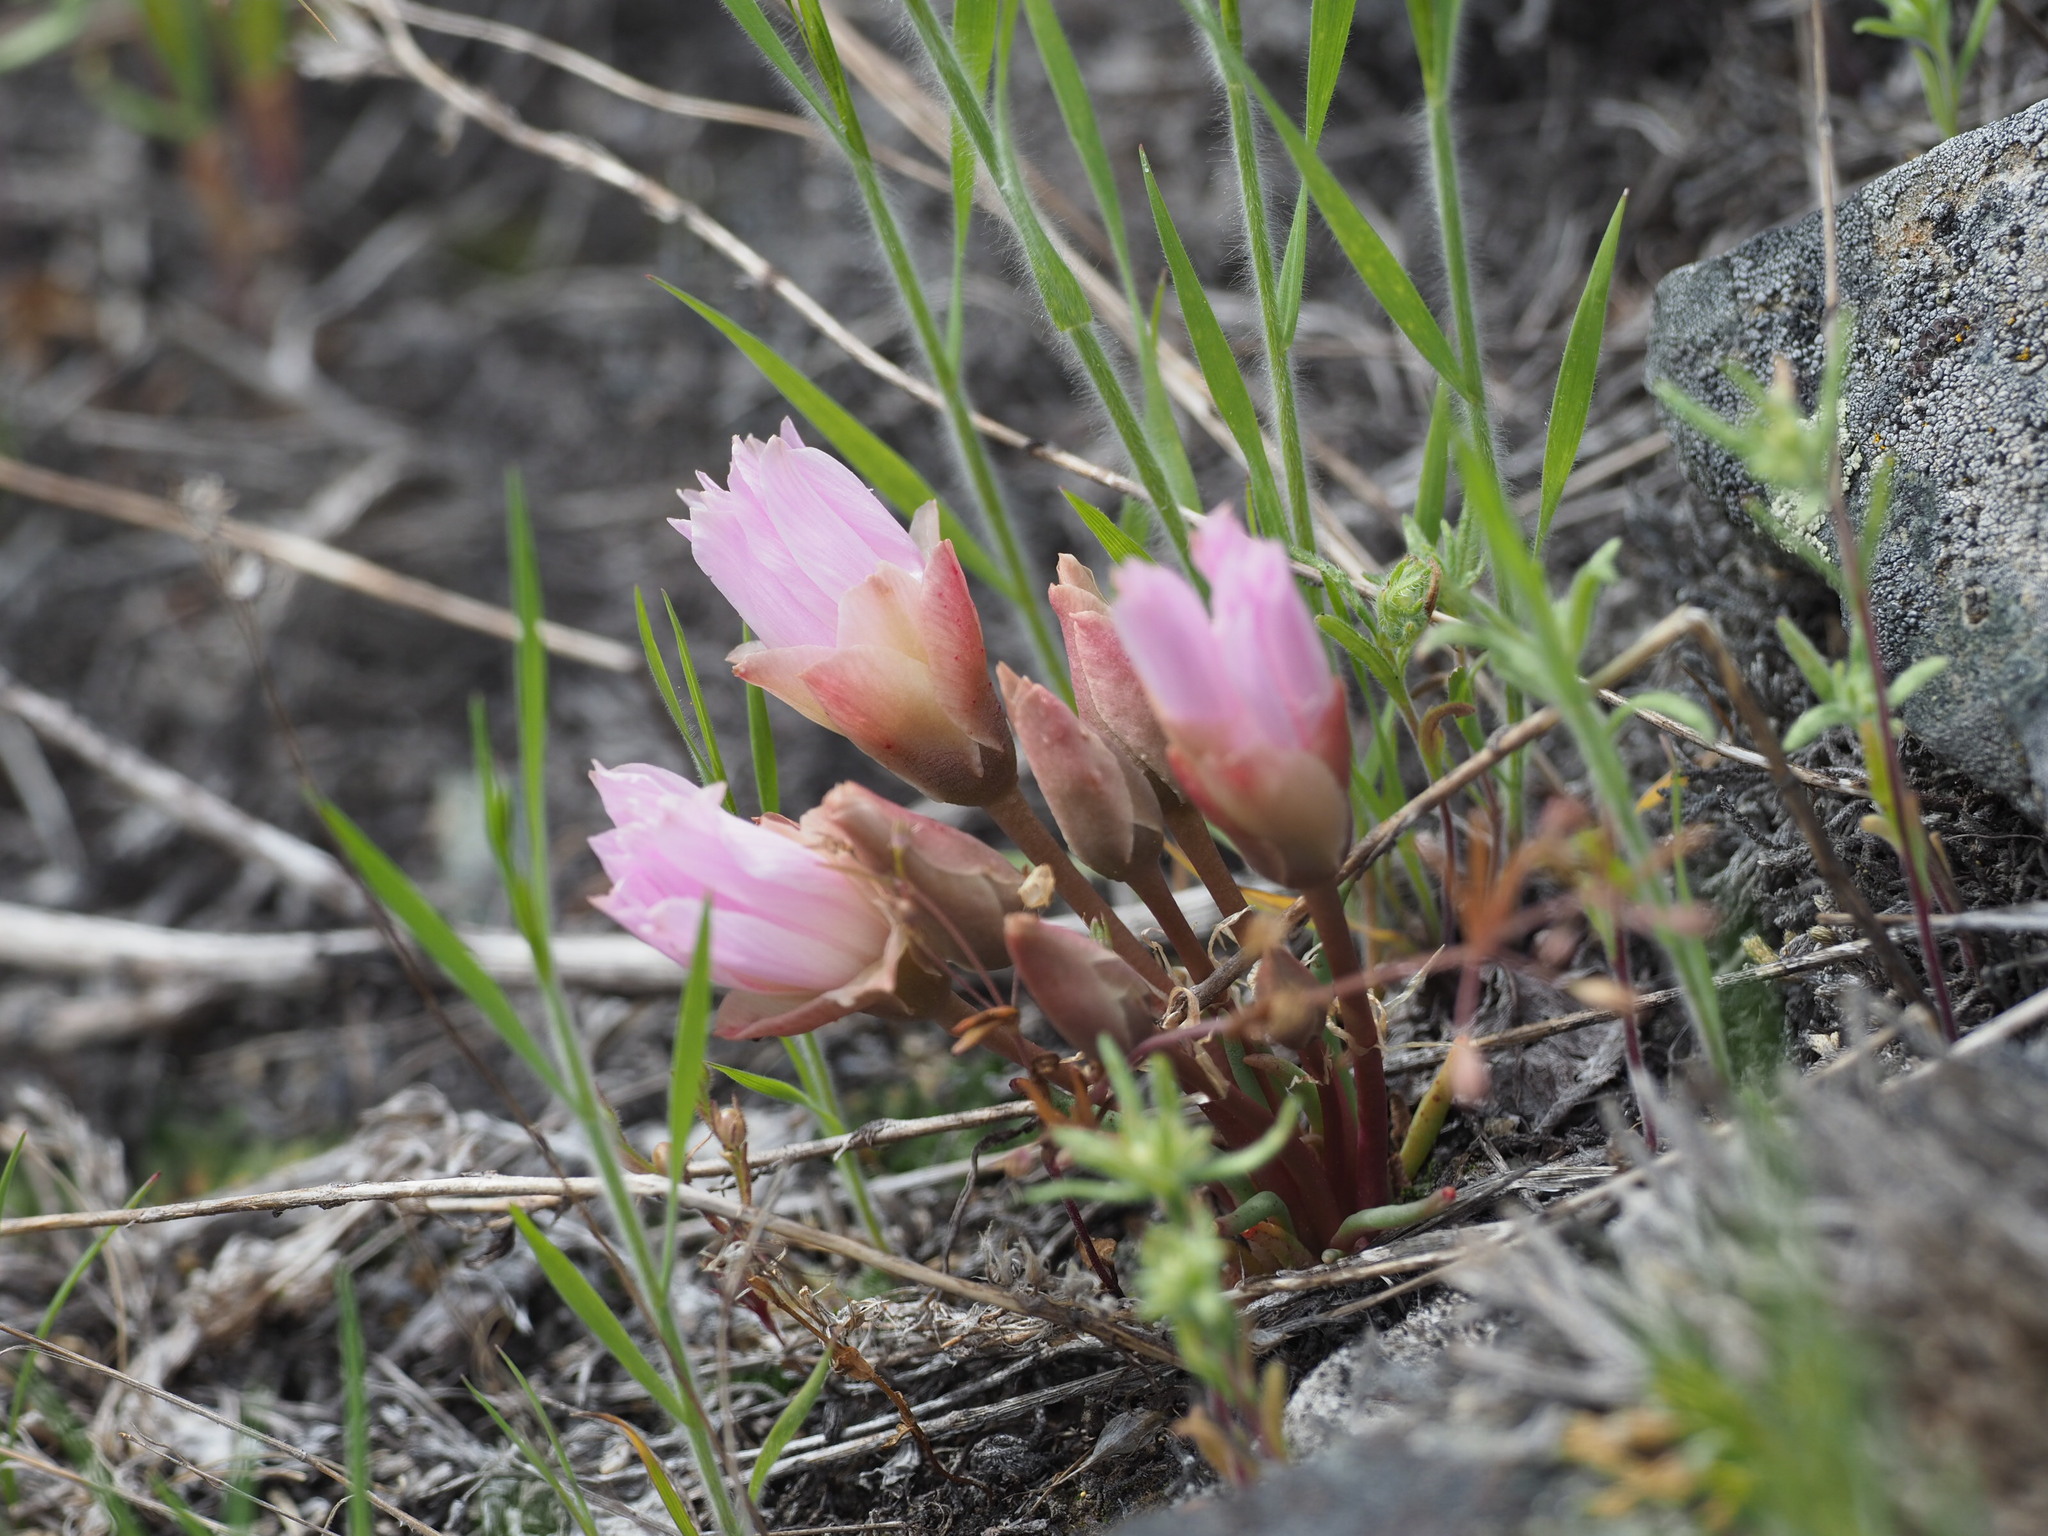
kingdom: Plantae
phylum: Tracheophyta
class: Magnoliopsida
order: Caryophyllales
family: Montiaceae
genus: Lewisia
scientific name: Lewisia rediviva
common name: Bitter-root
